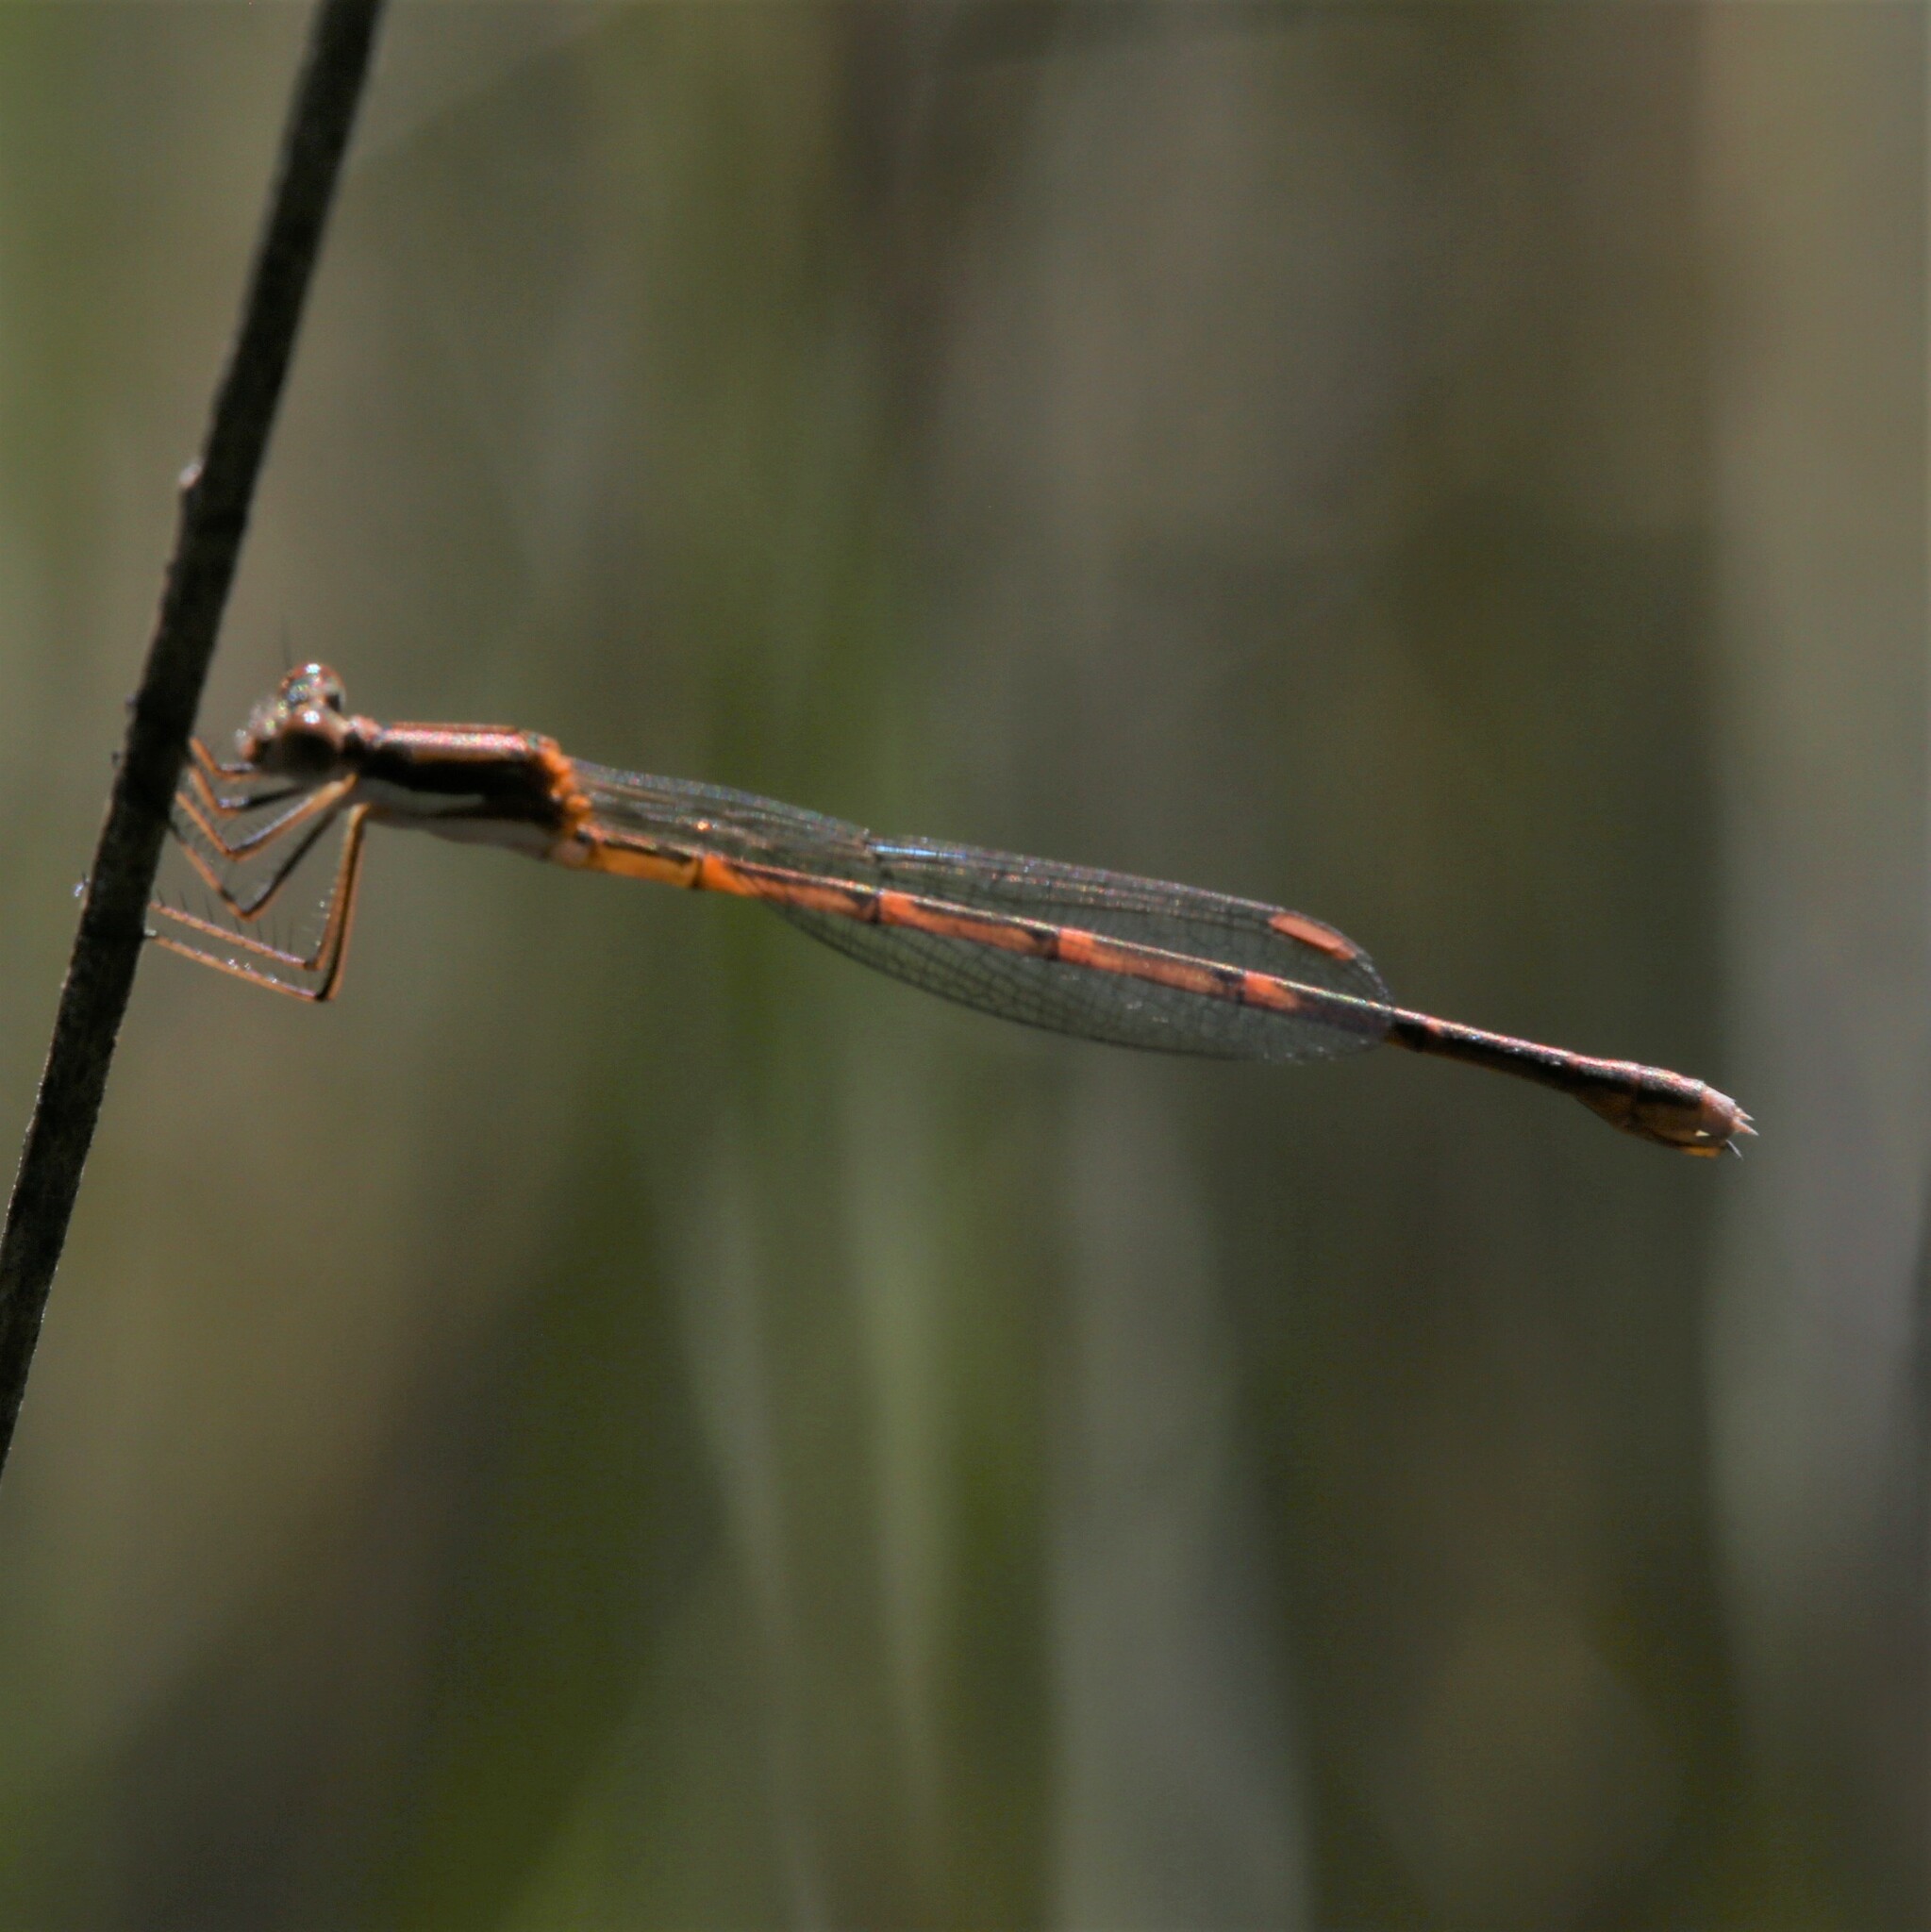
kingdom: Animalia
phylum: Arthropoda
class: Insecta
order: Odonata
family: Lestidae
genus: Austrolestes
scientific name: Austrolestes analis
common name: Slender ringtail
